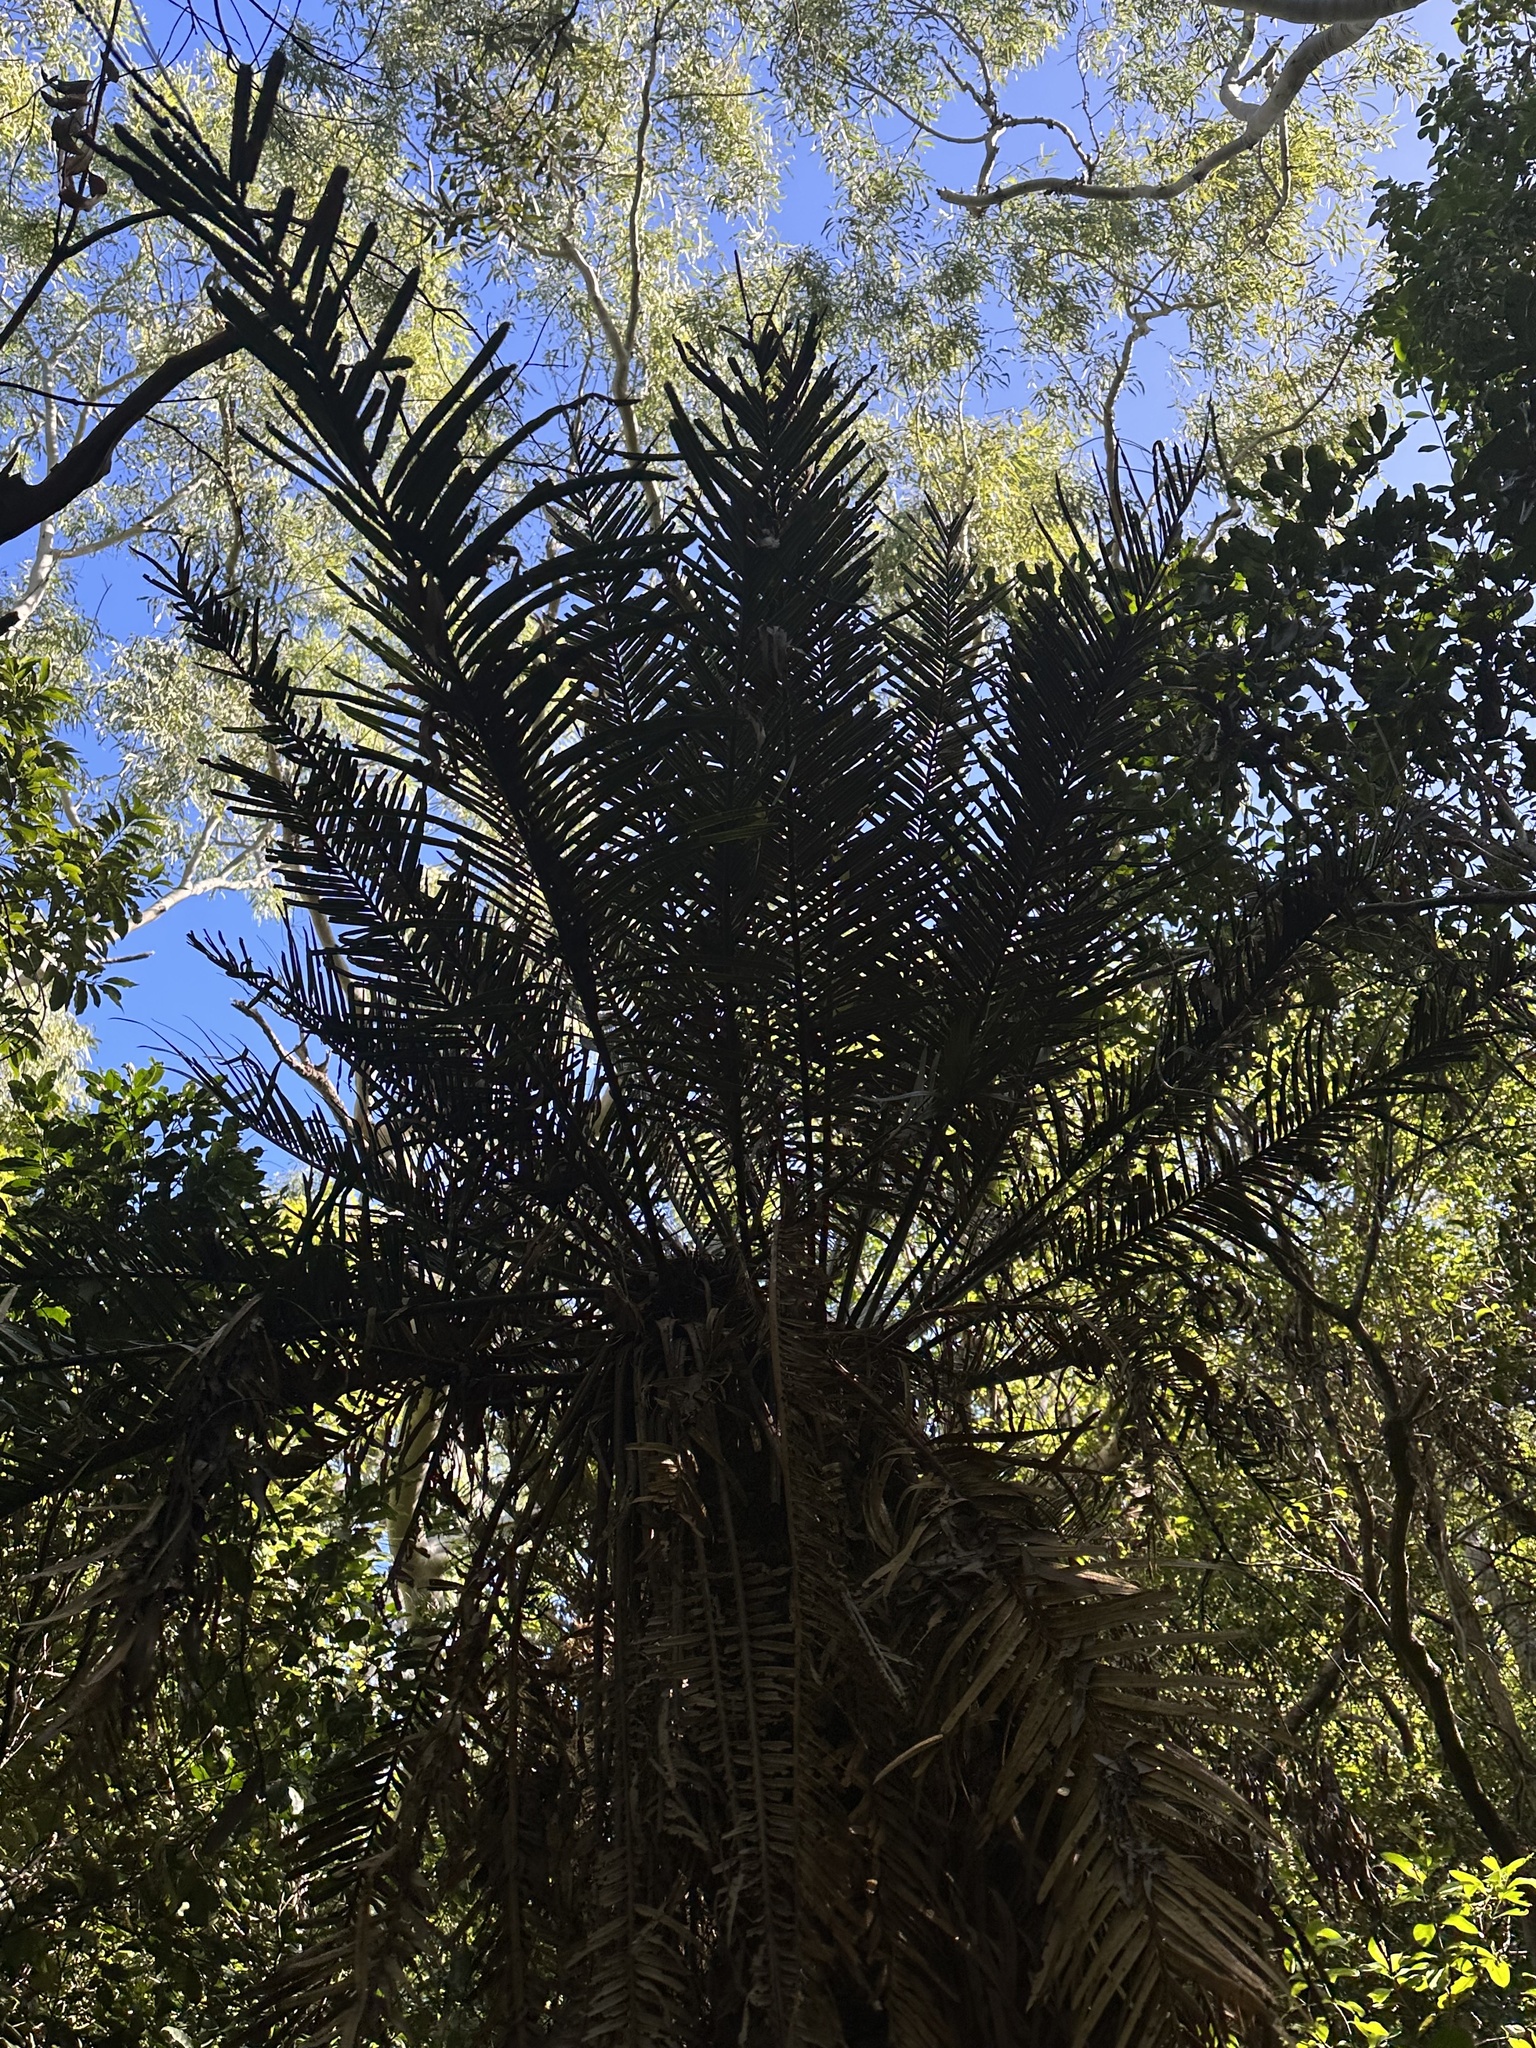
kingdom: Plantae
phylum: Tracheophyta
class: Cycadopsida
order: Cycadales
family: Cycadaceae
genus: Cycas
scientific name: Cycas media
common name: Queensland cycas
